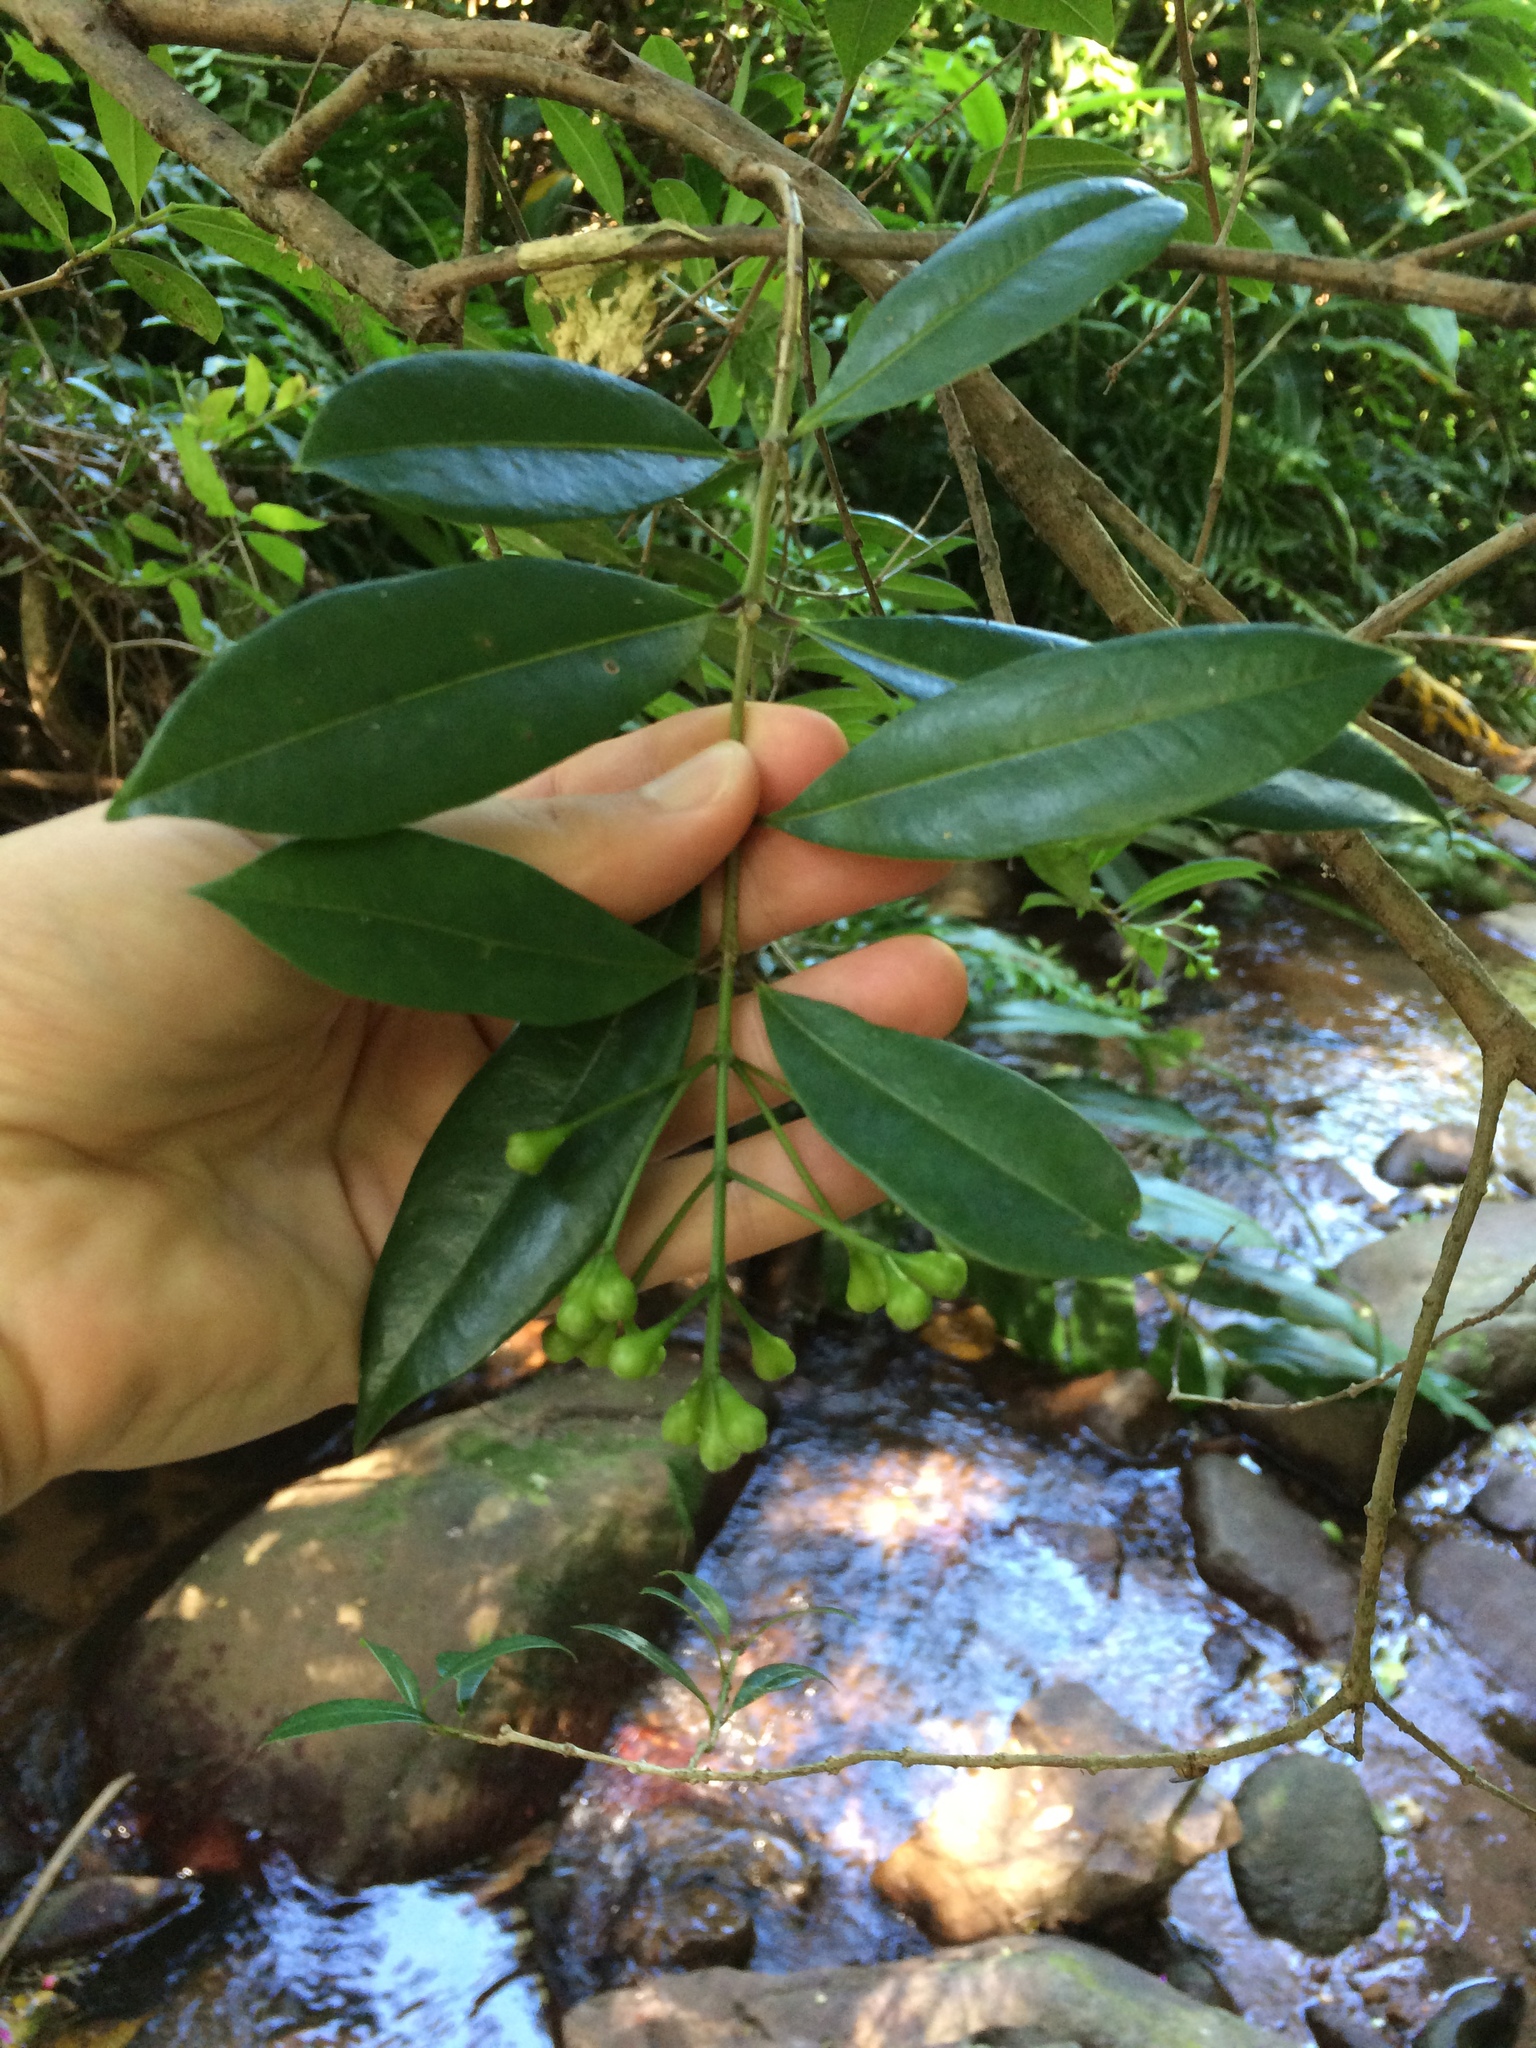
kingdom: Plantae
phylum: Tracheophyta
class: Magnoliopsida
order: Myrtales
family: Myrtaceae
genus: Syzygium
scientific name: Syzygium australe
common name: Australian brush-cherry
